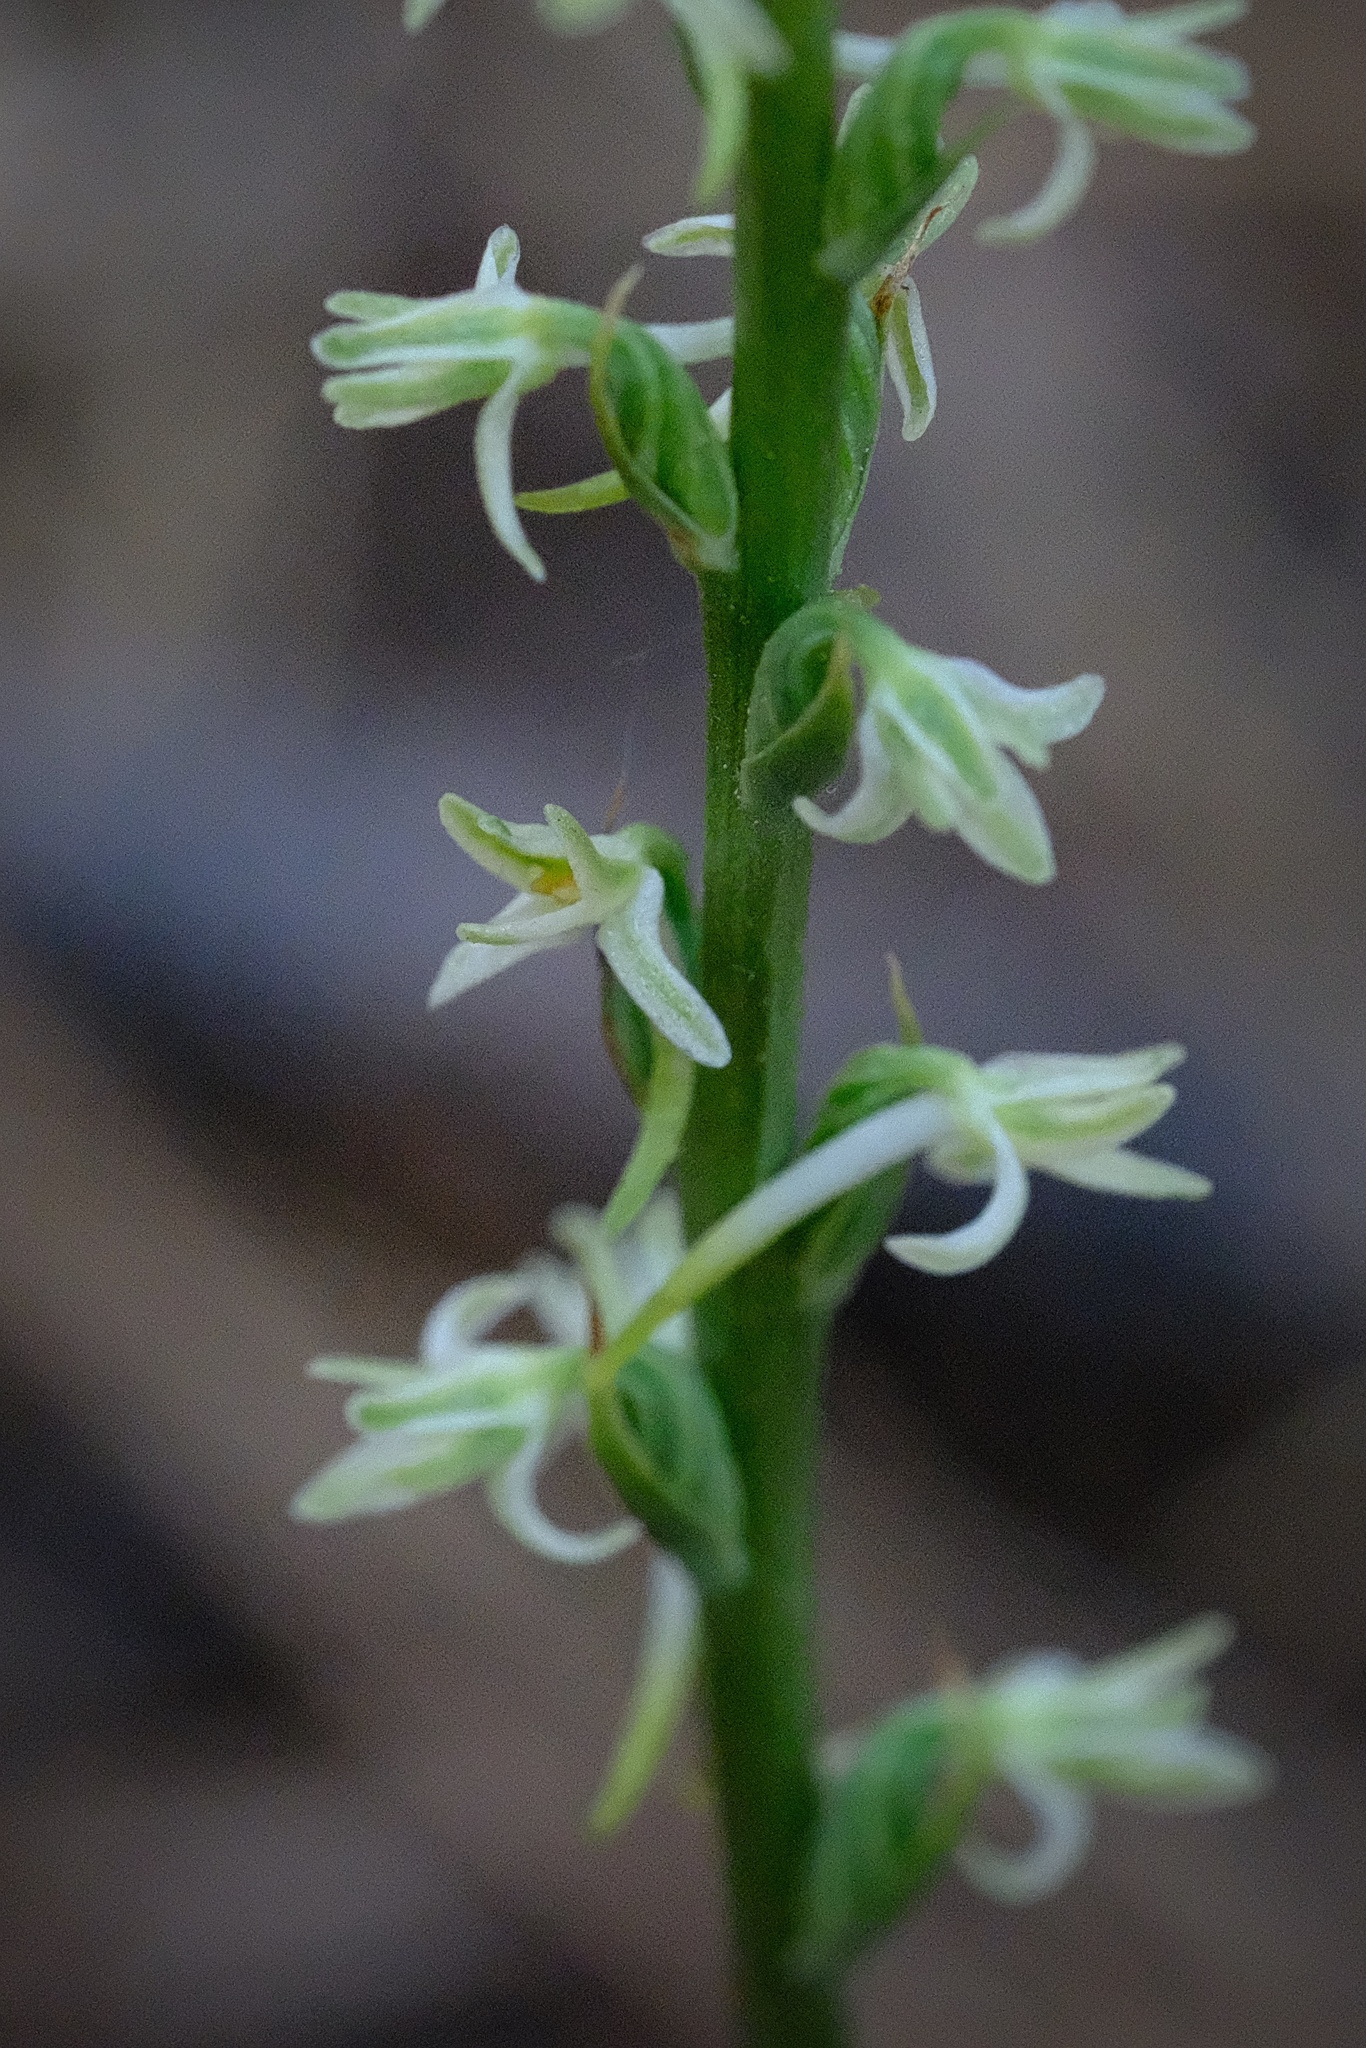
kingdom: Plantae
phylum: Tracheophyta
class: Liliopsida
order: Asparagales
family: Orchidaceae
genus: Platanthera
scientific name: Platanthera transversa
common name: Royal rein orchid
